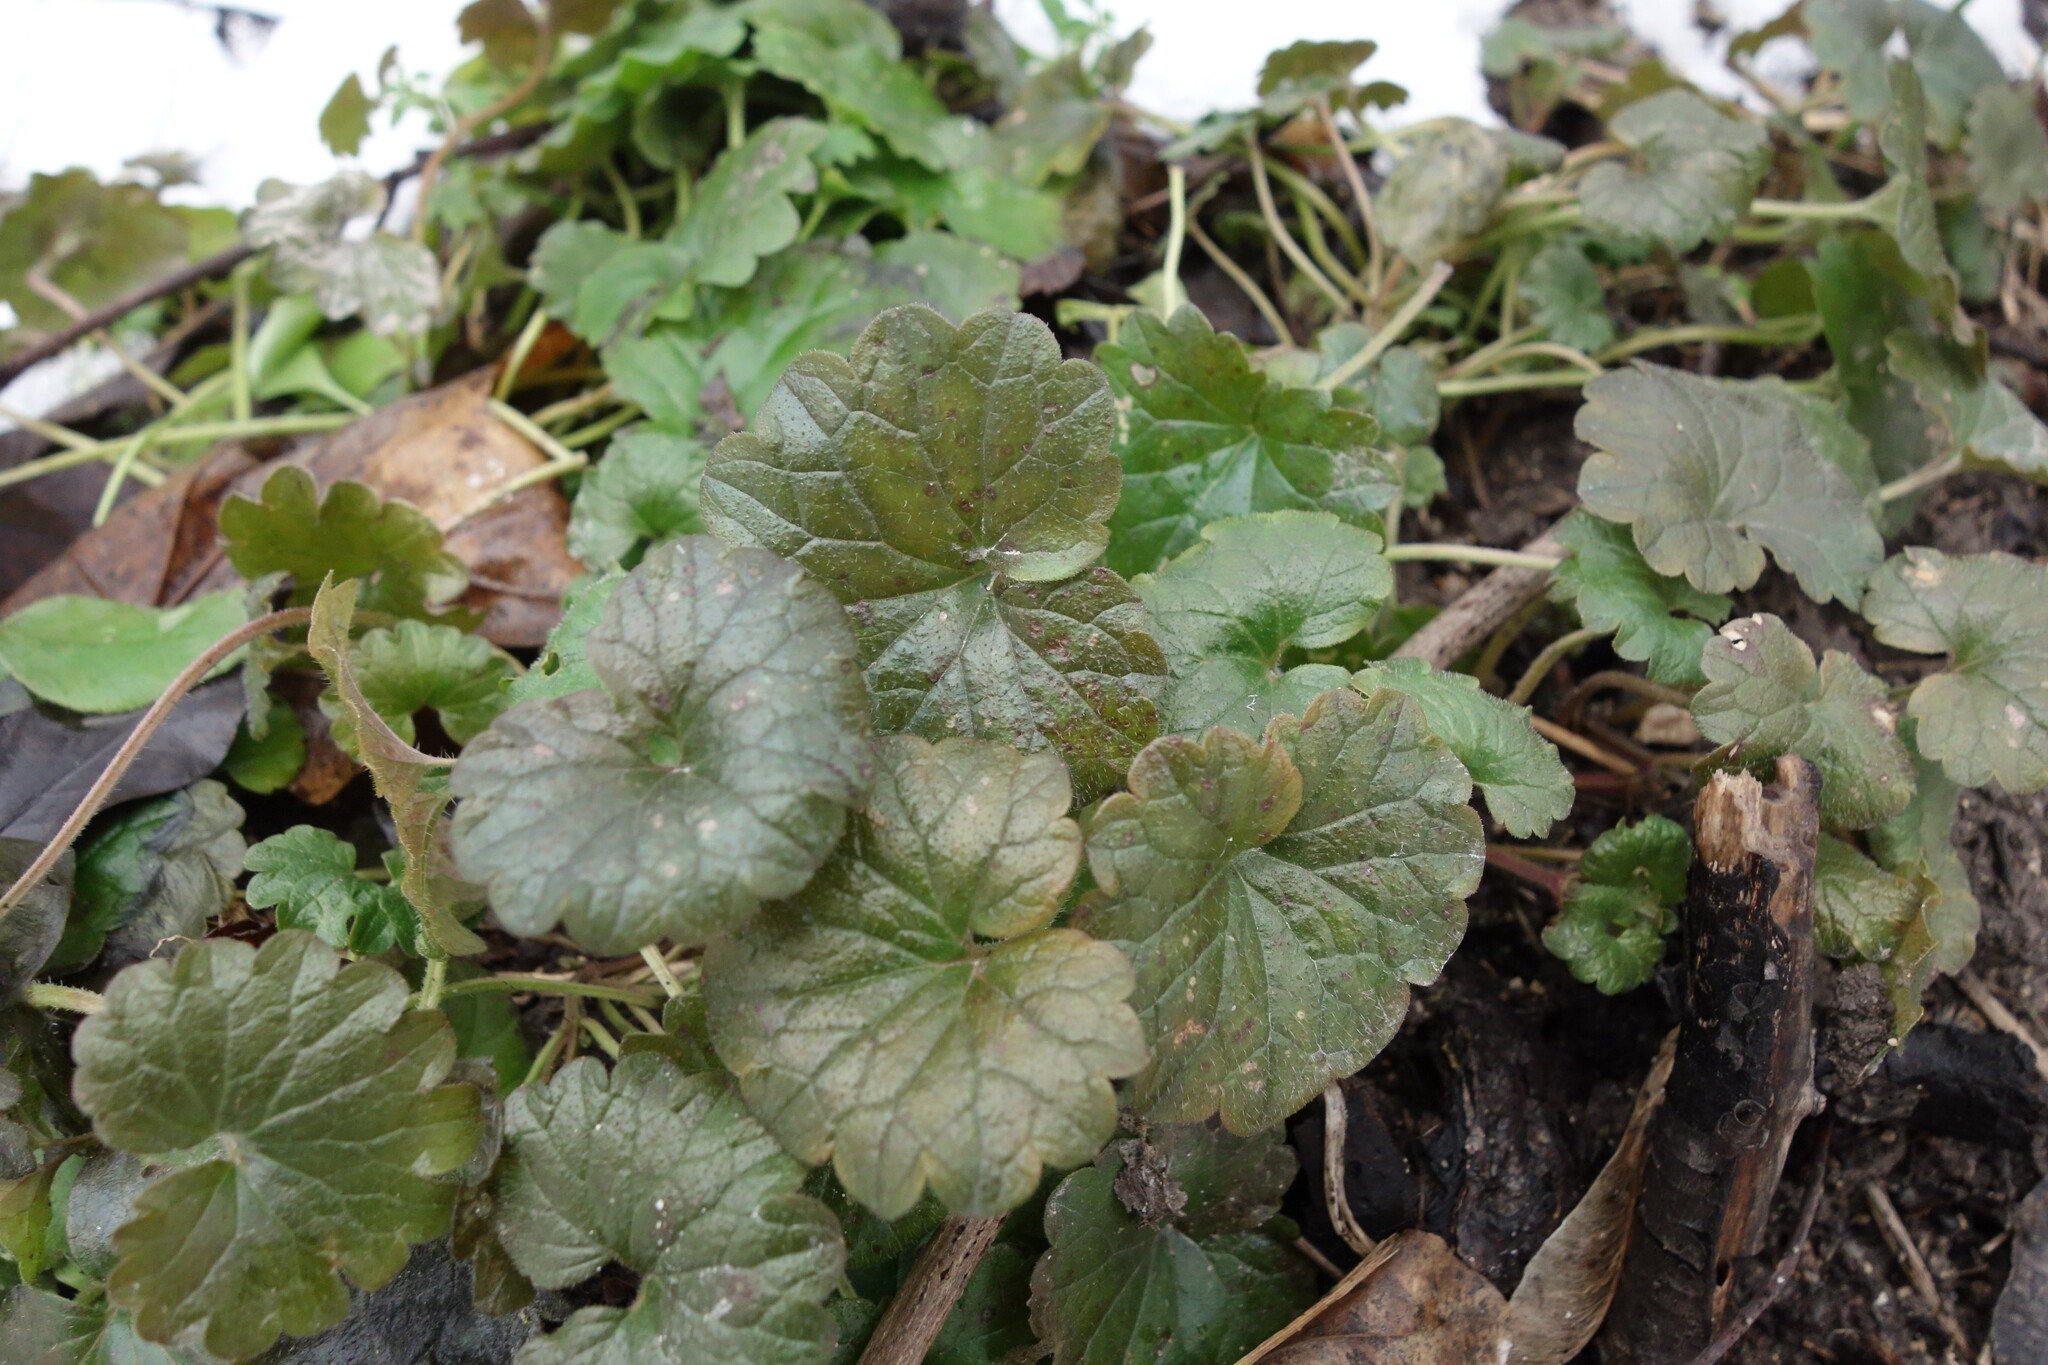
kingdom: Plantae
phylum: Tracheophyta
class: Magnoliopsida
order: Lamiales
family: Lamiaceae
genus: Glechoma
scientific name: Glechoma hederacea
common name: Ground ivy
